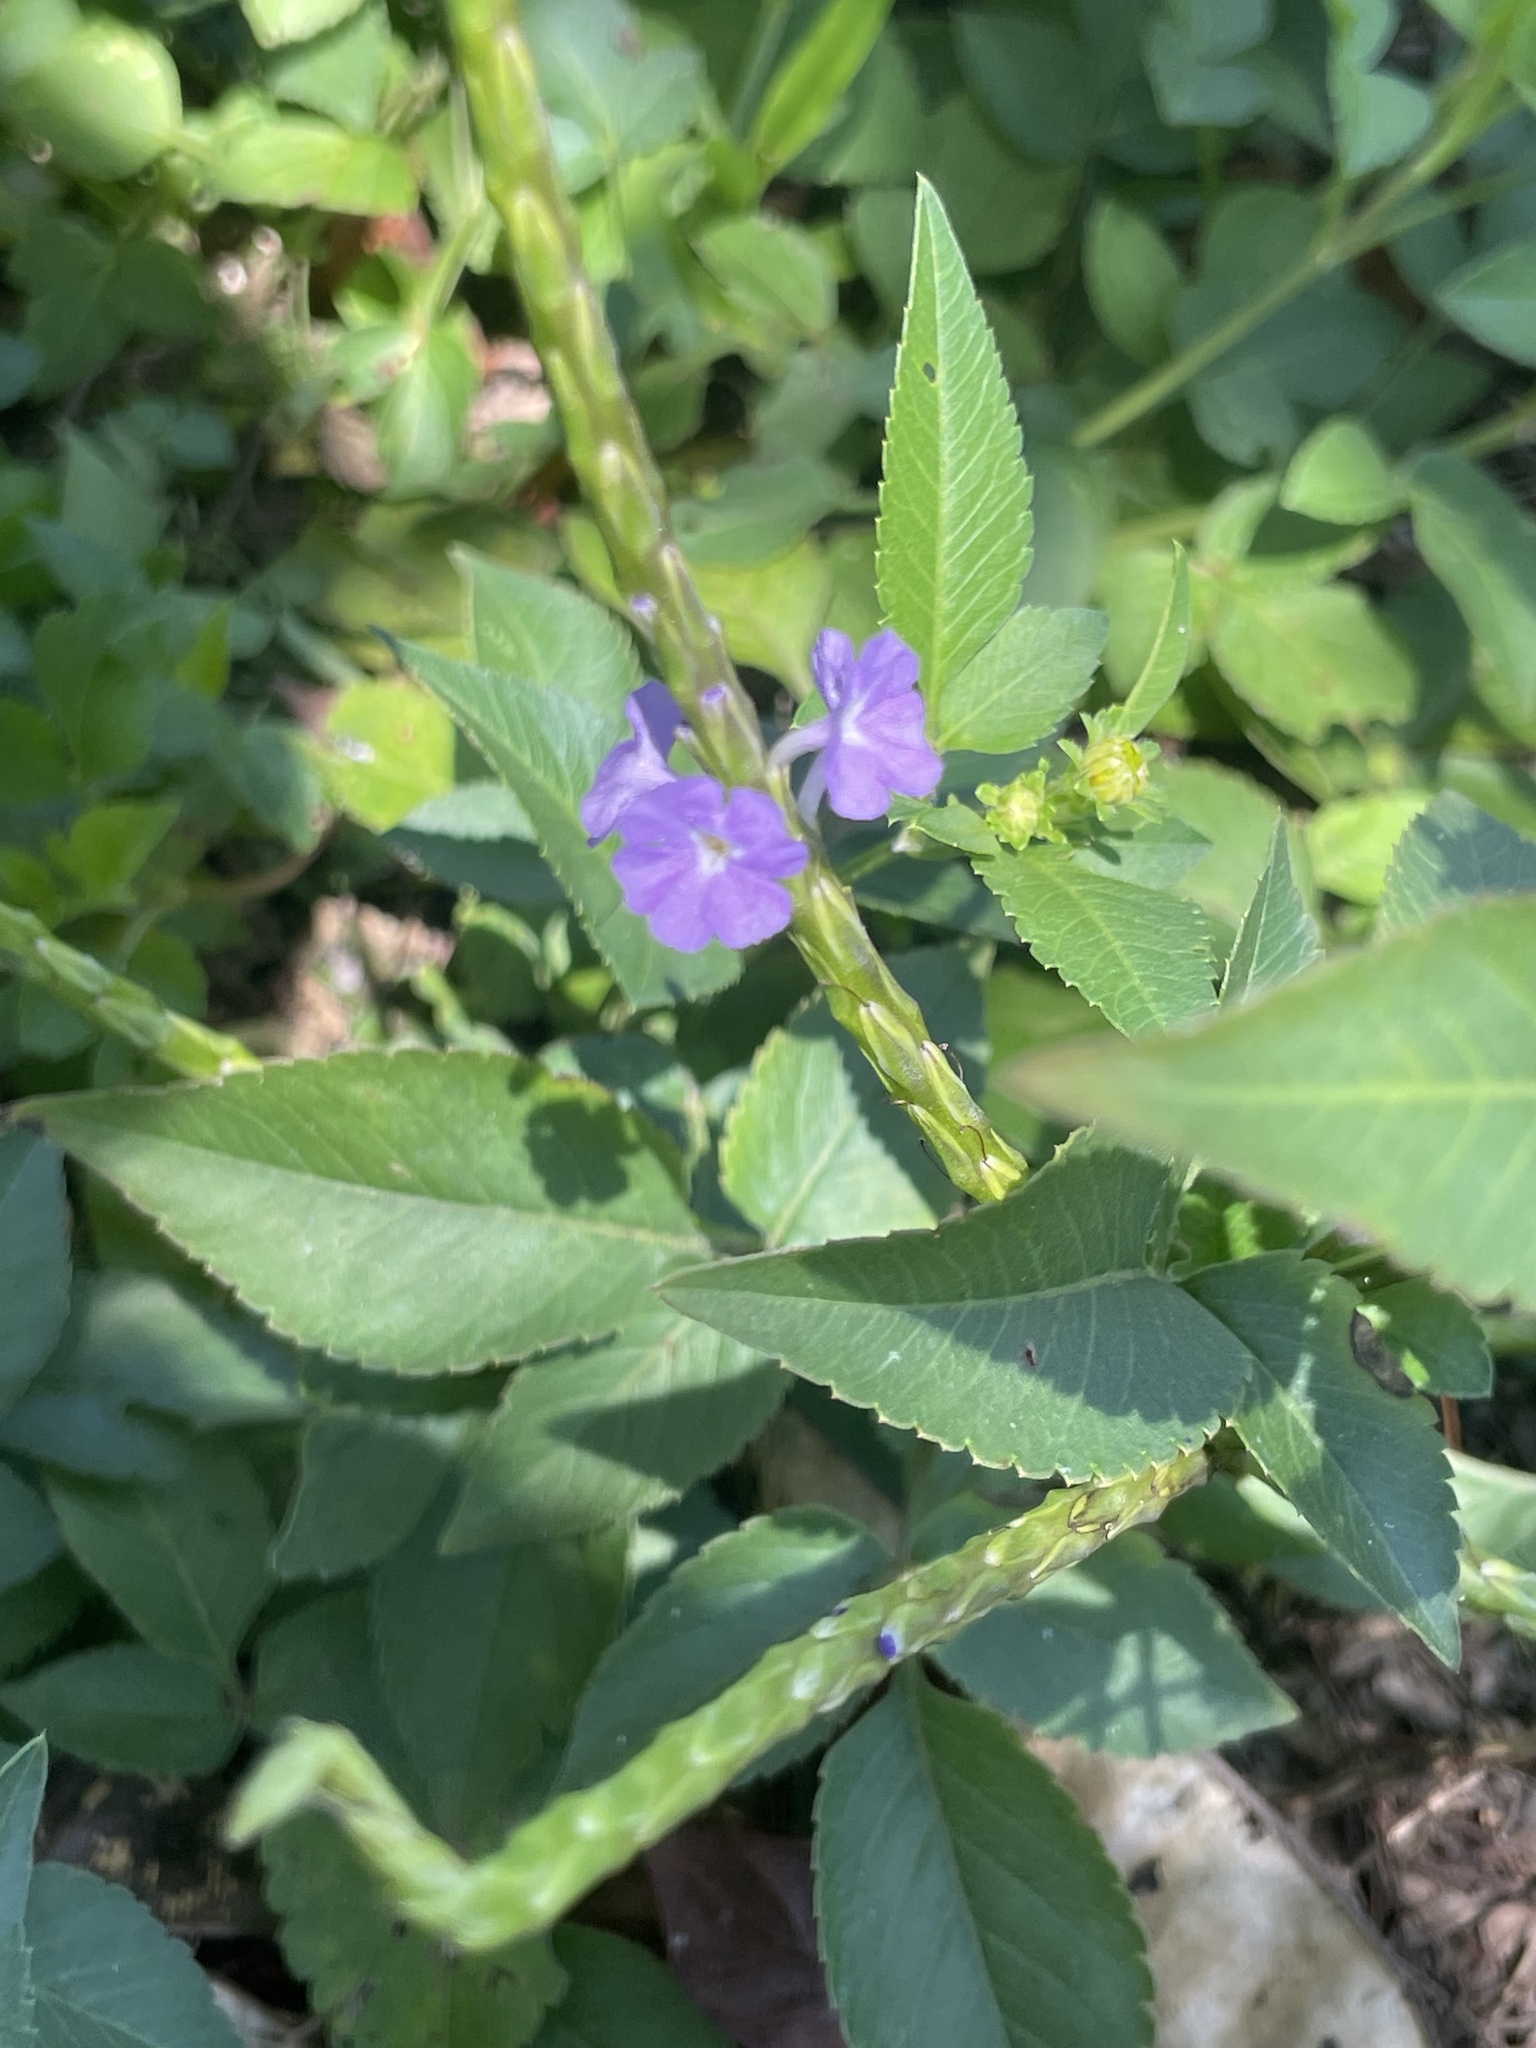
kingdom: Plantae
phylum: Tracheophyta
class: Magnoliopsida
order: Lamiales
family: Verbenaceae
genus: Stachytarpheta
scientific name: Stachytarpheta jamaicensis
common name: Light-blue snakeweed
